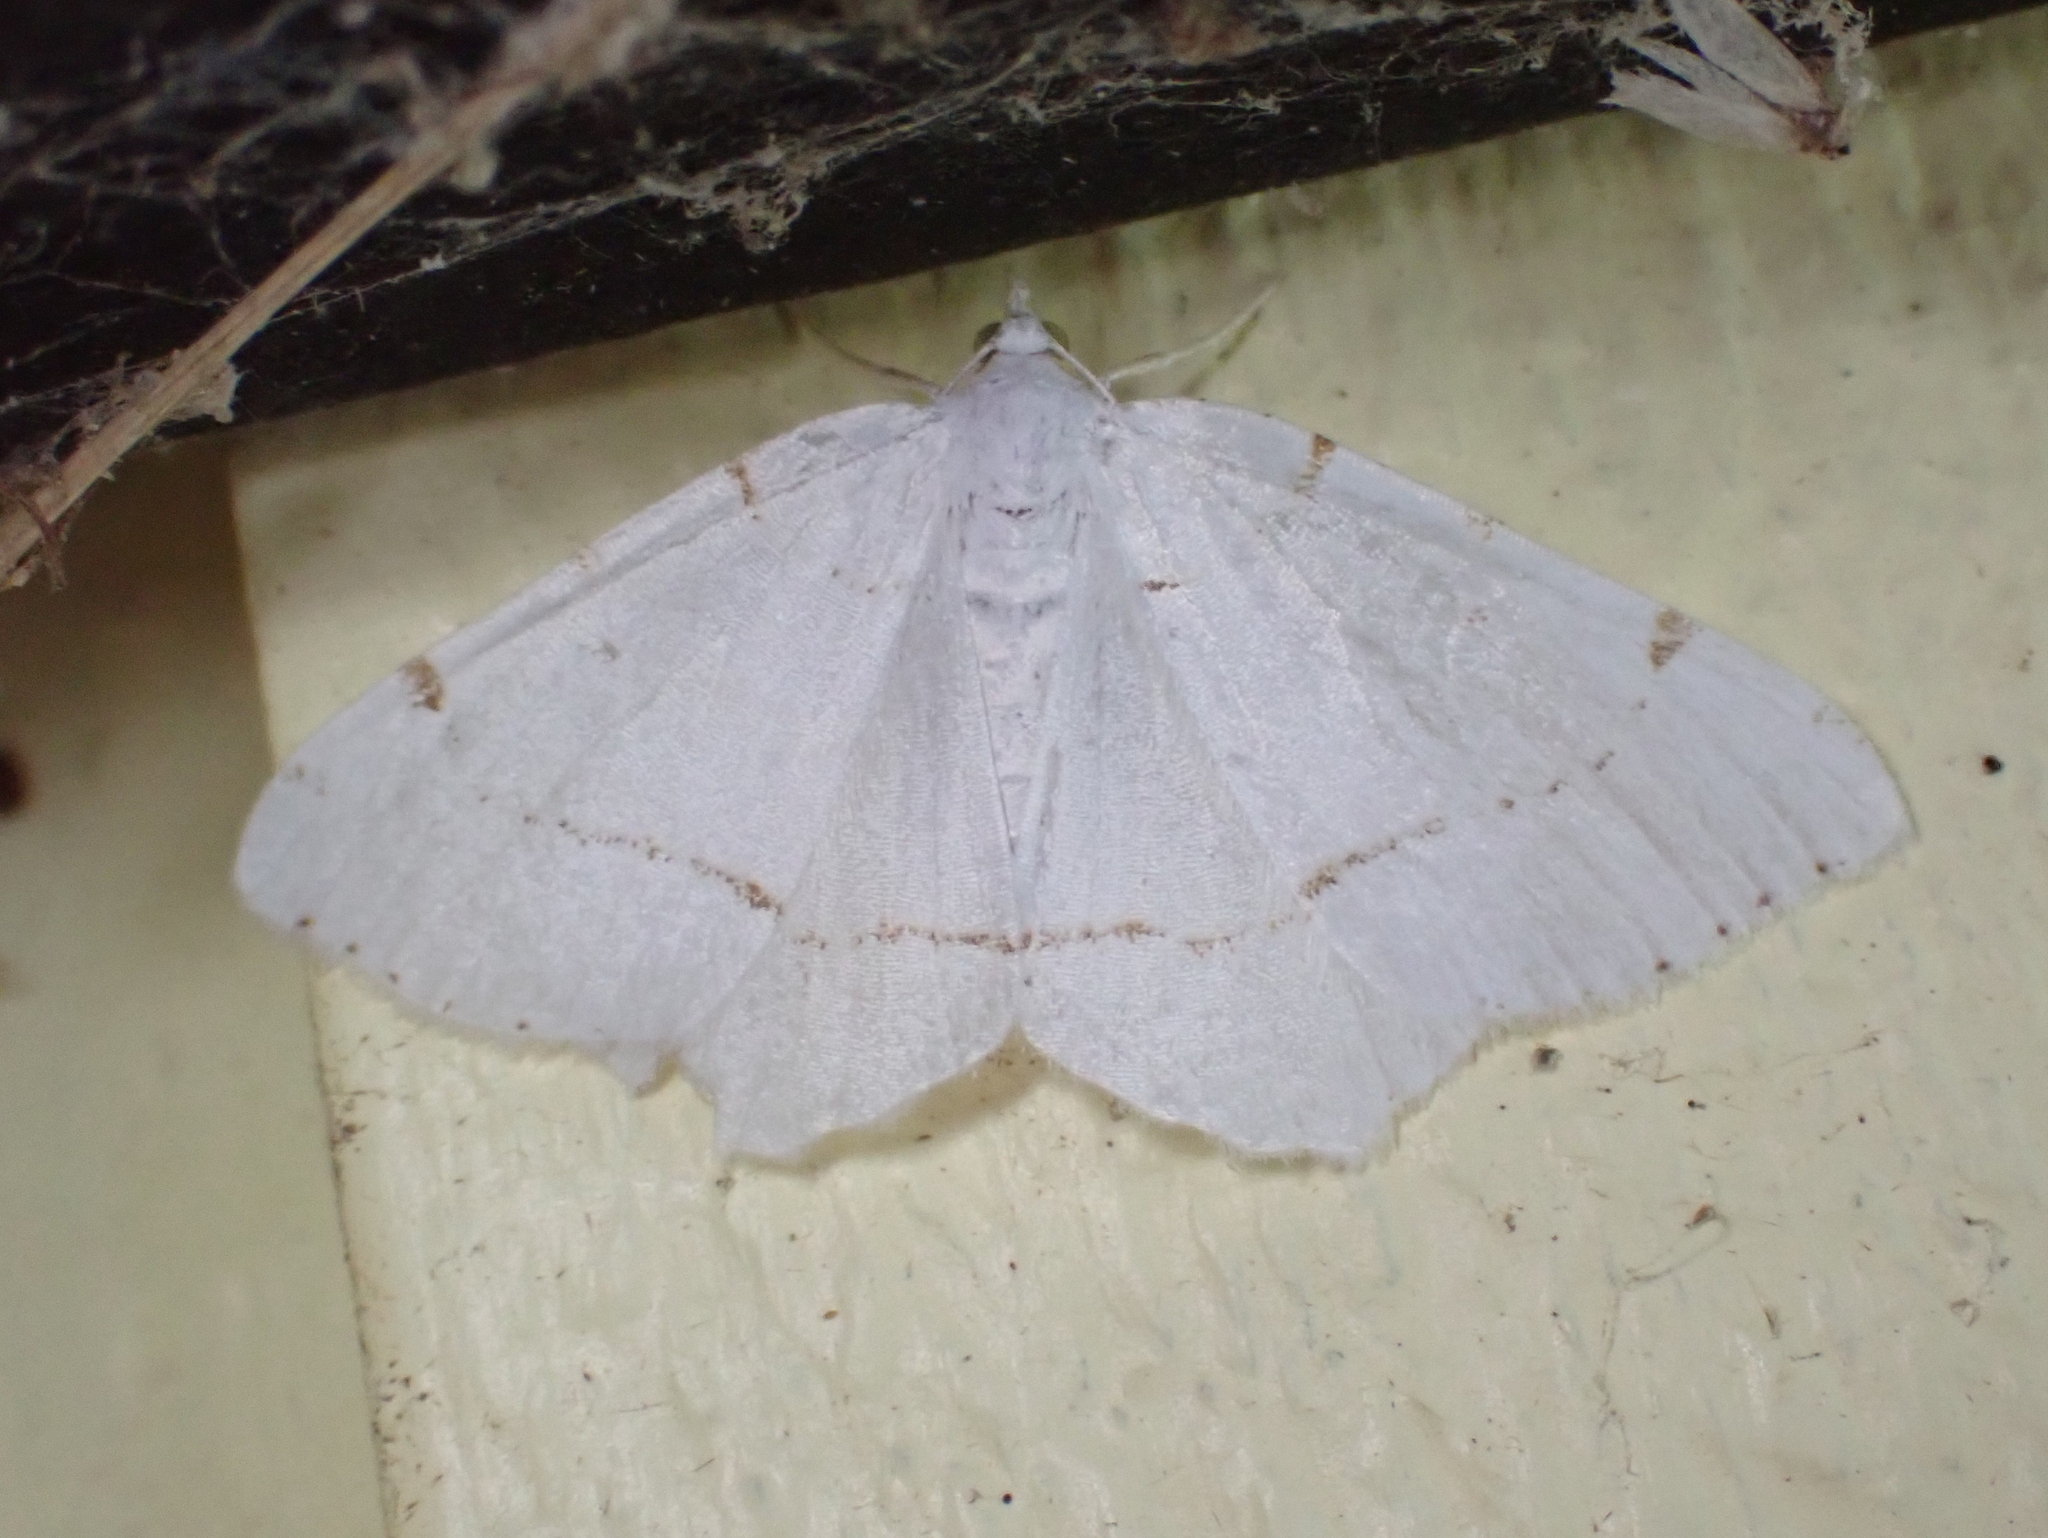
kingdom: Animalia
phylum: Arthropoda
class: Insecta
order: Lepidoptera
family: Geometridae
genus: Macaria
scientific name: Macaria pustularia
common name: Lesser maple spanworm moth
